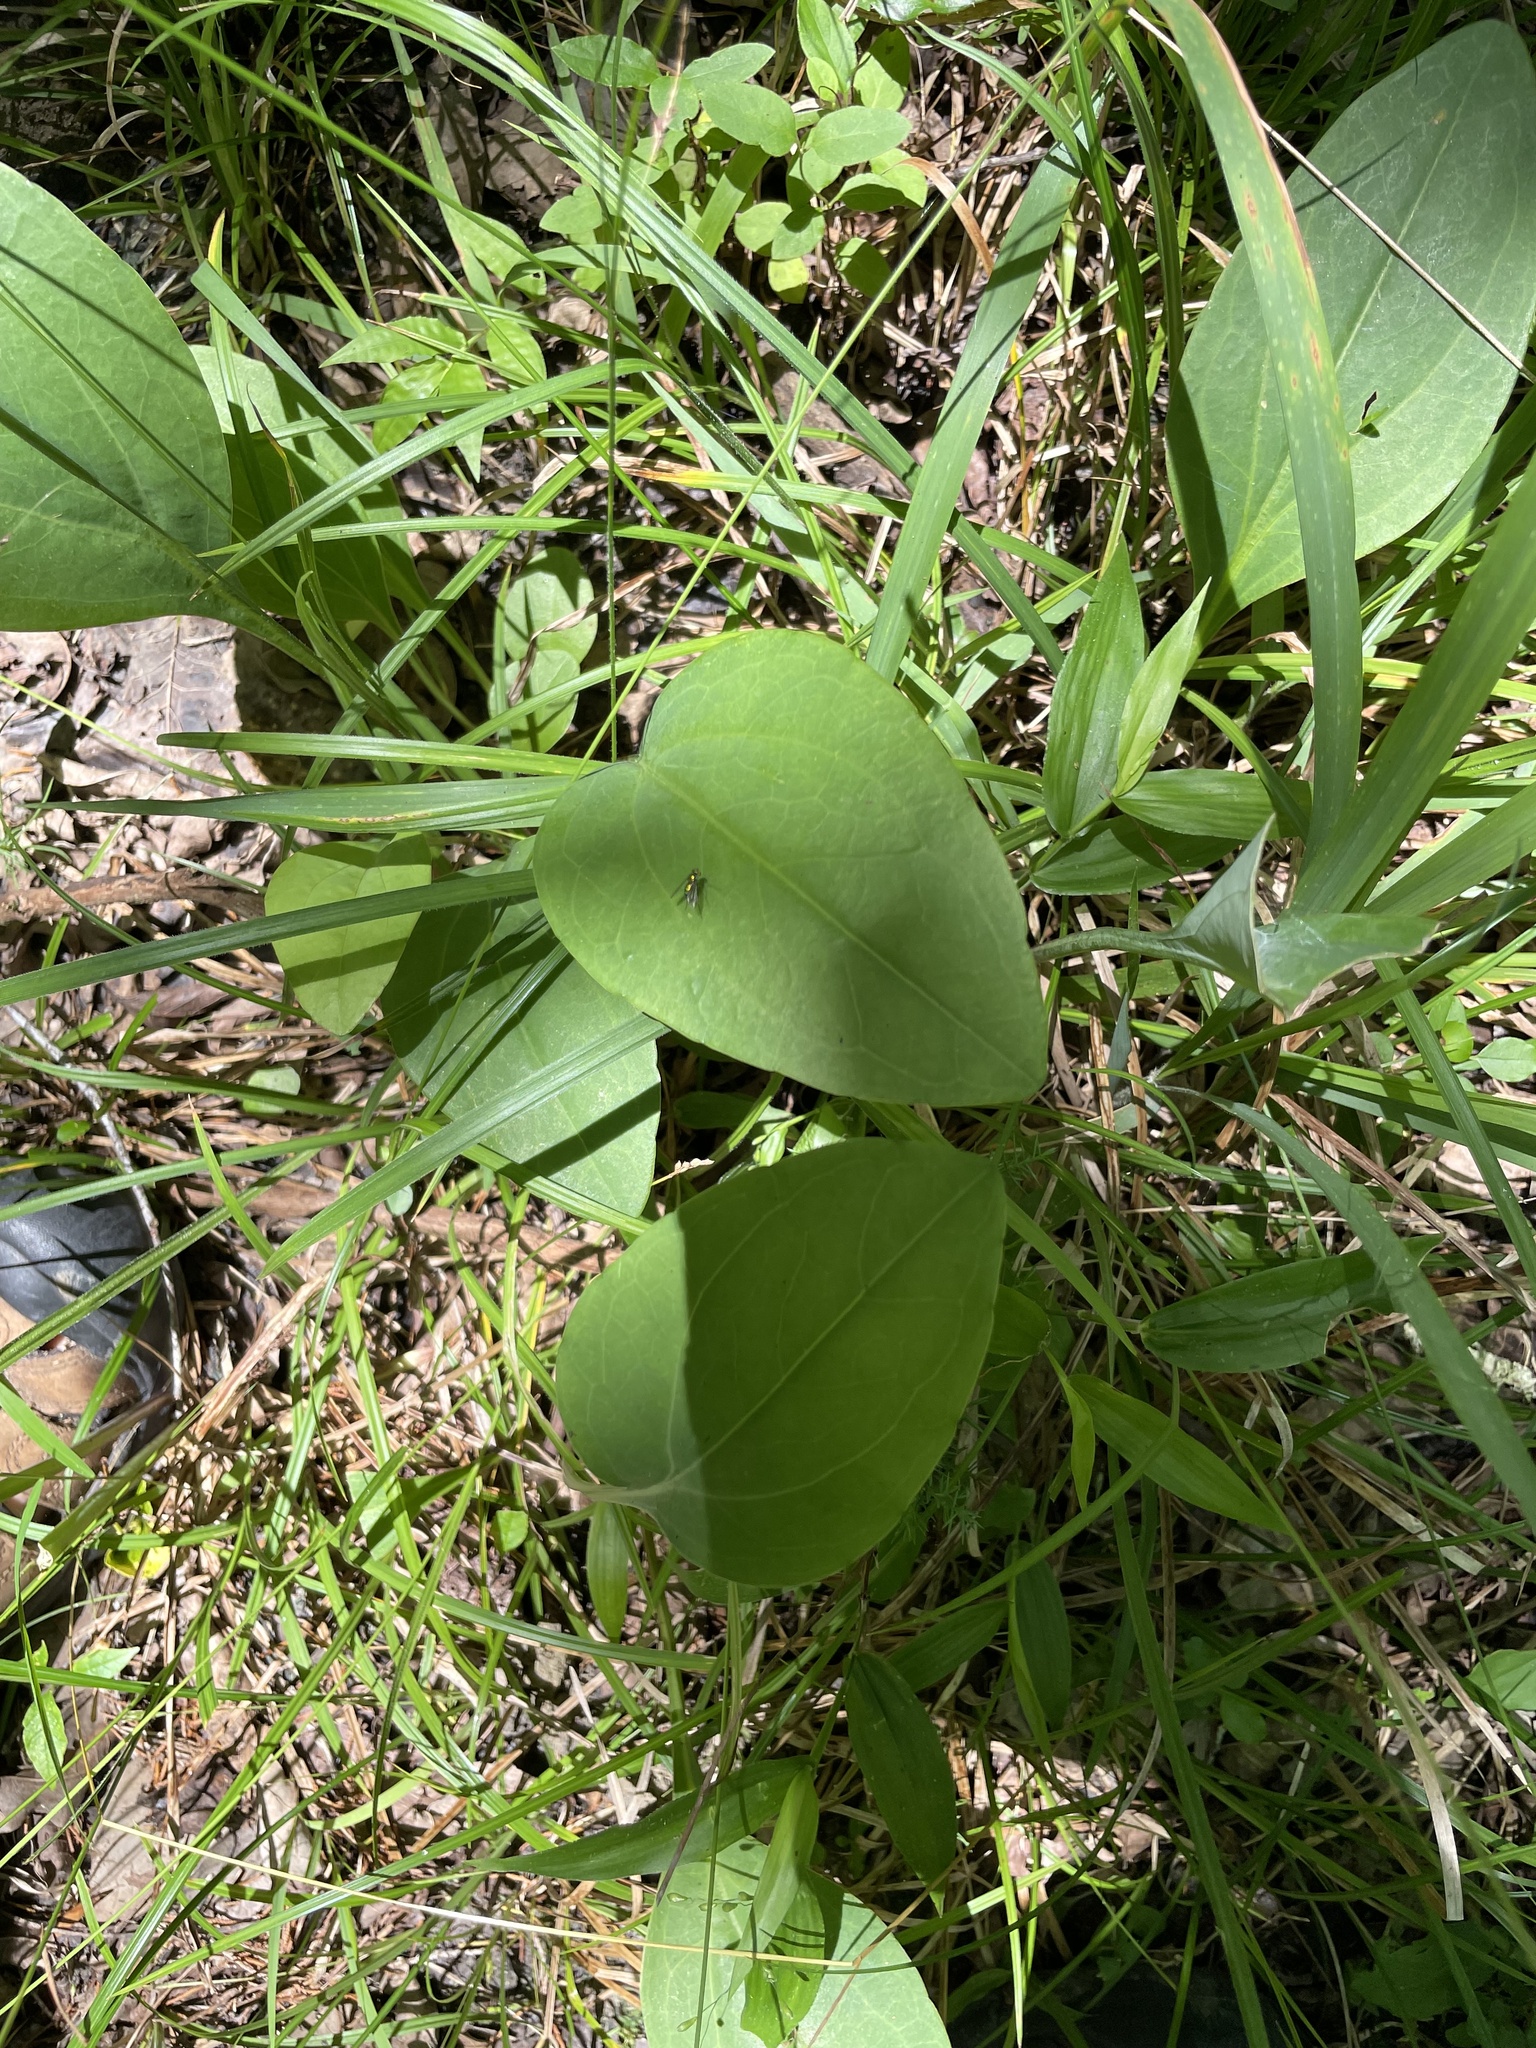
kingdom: Plantae
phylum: Tracheophyta
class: Magnoliopsida
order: Asterales
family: Asteraceae
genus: Arnoglossum
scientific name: Arnoglossum ovatum
